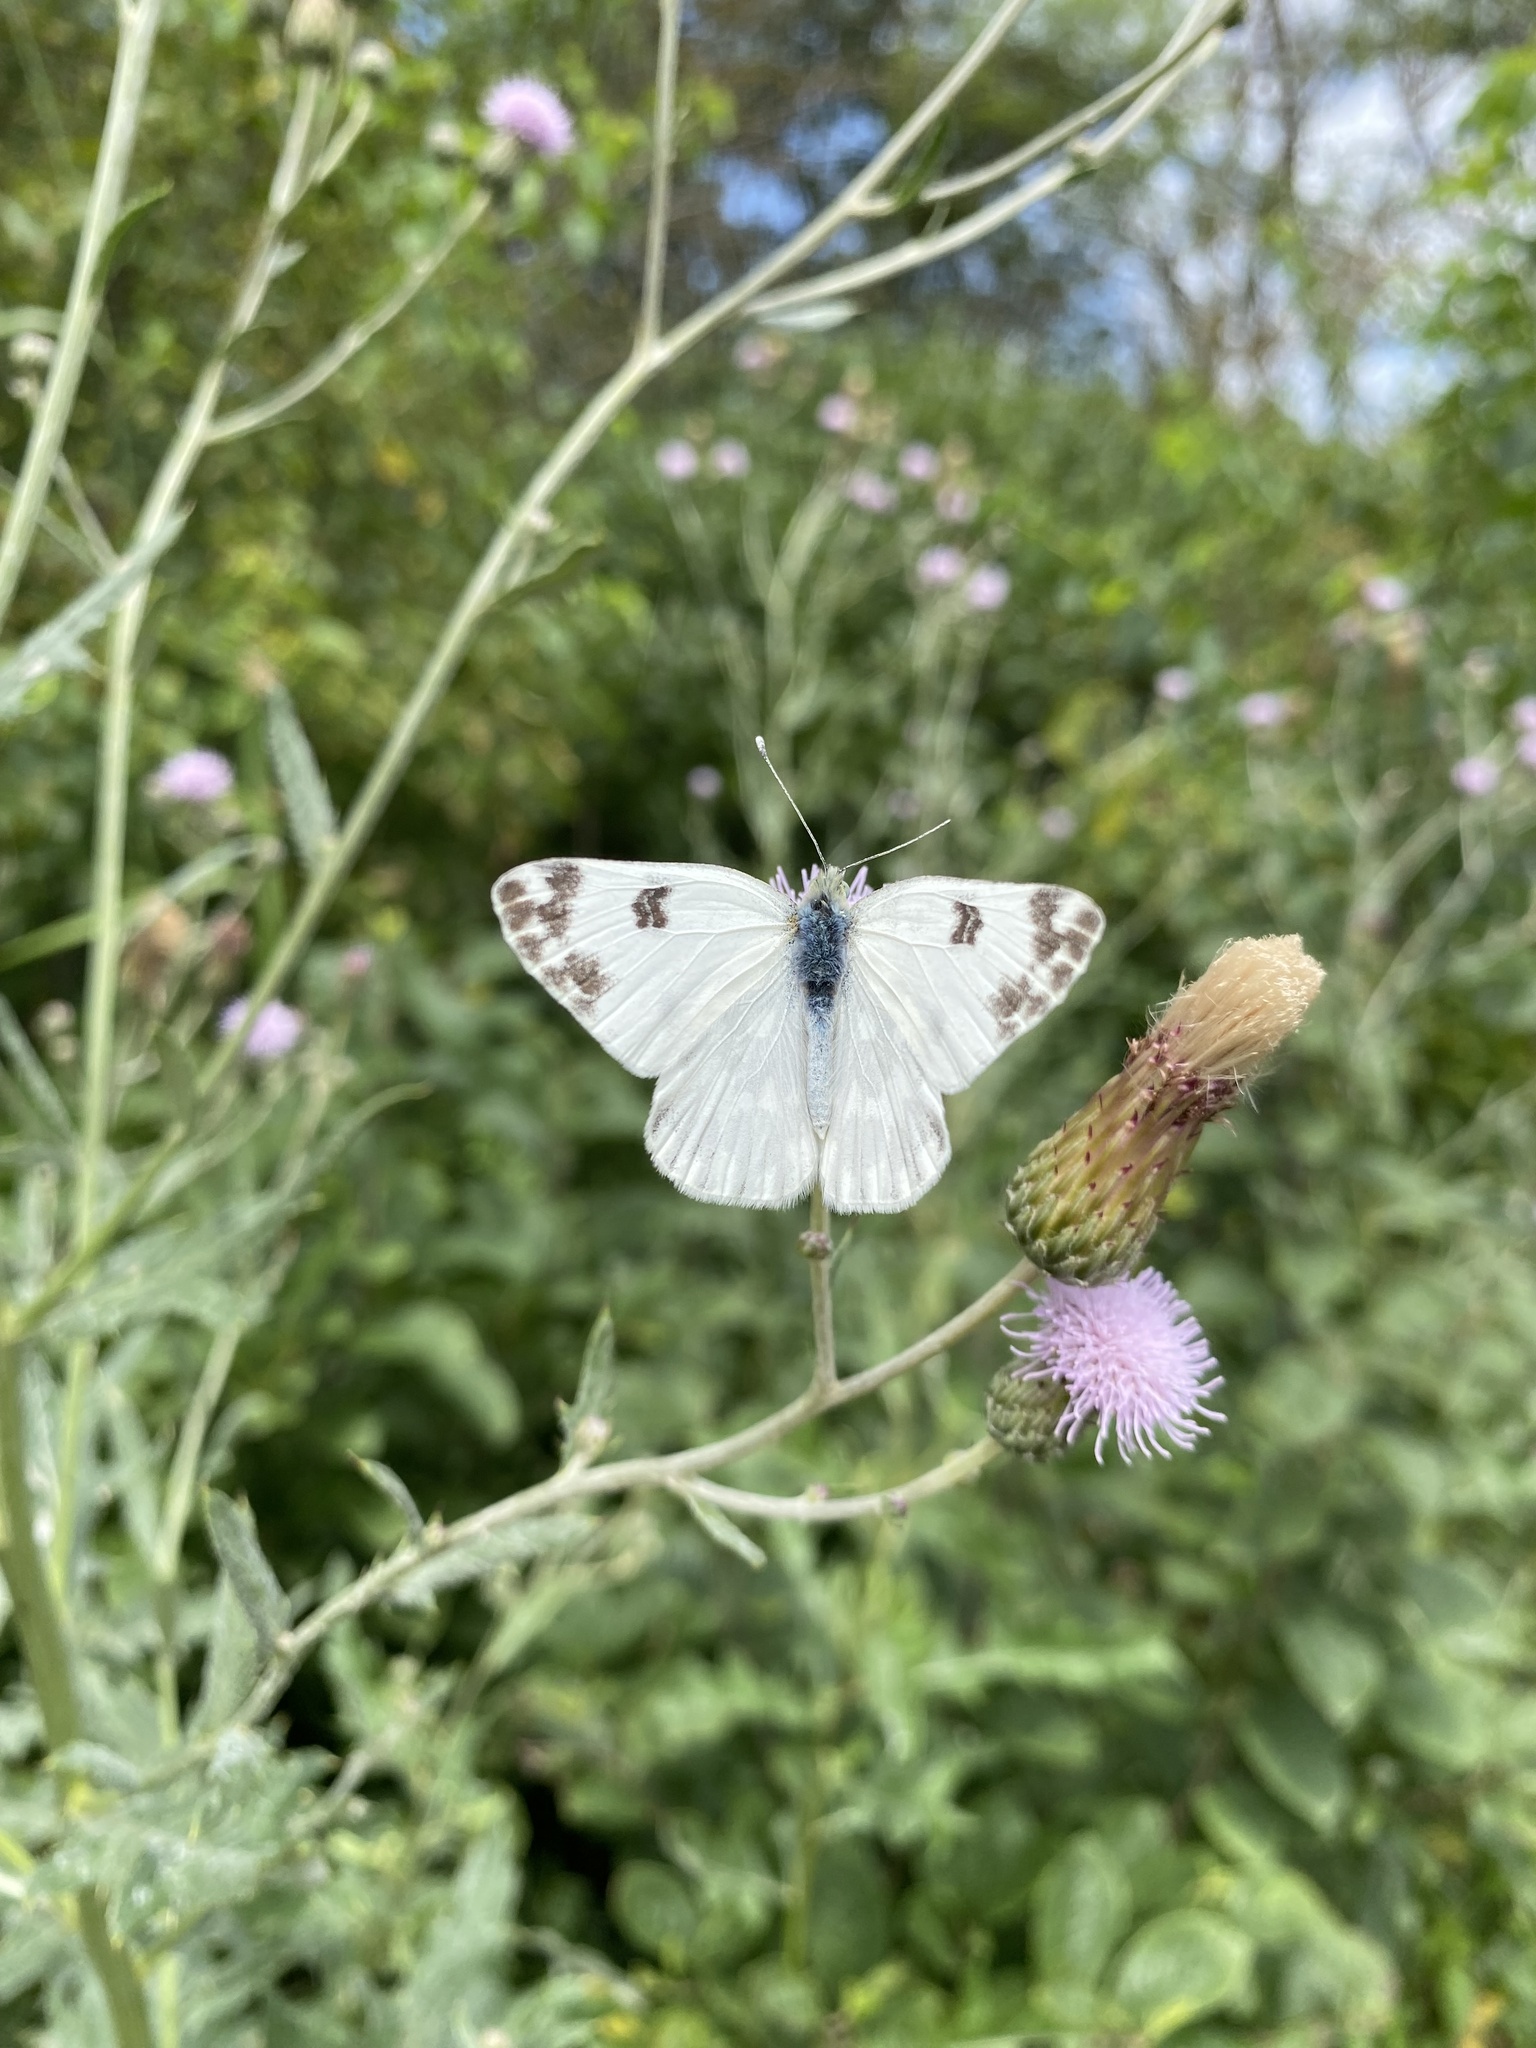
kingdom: Animalia
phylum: Arthropoda
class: Insecta
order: Lepidoptera
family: Pieridae
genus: Pontia
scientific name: Pontia edusa
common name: Eastern bath white
